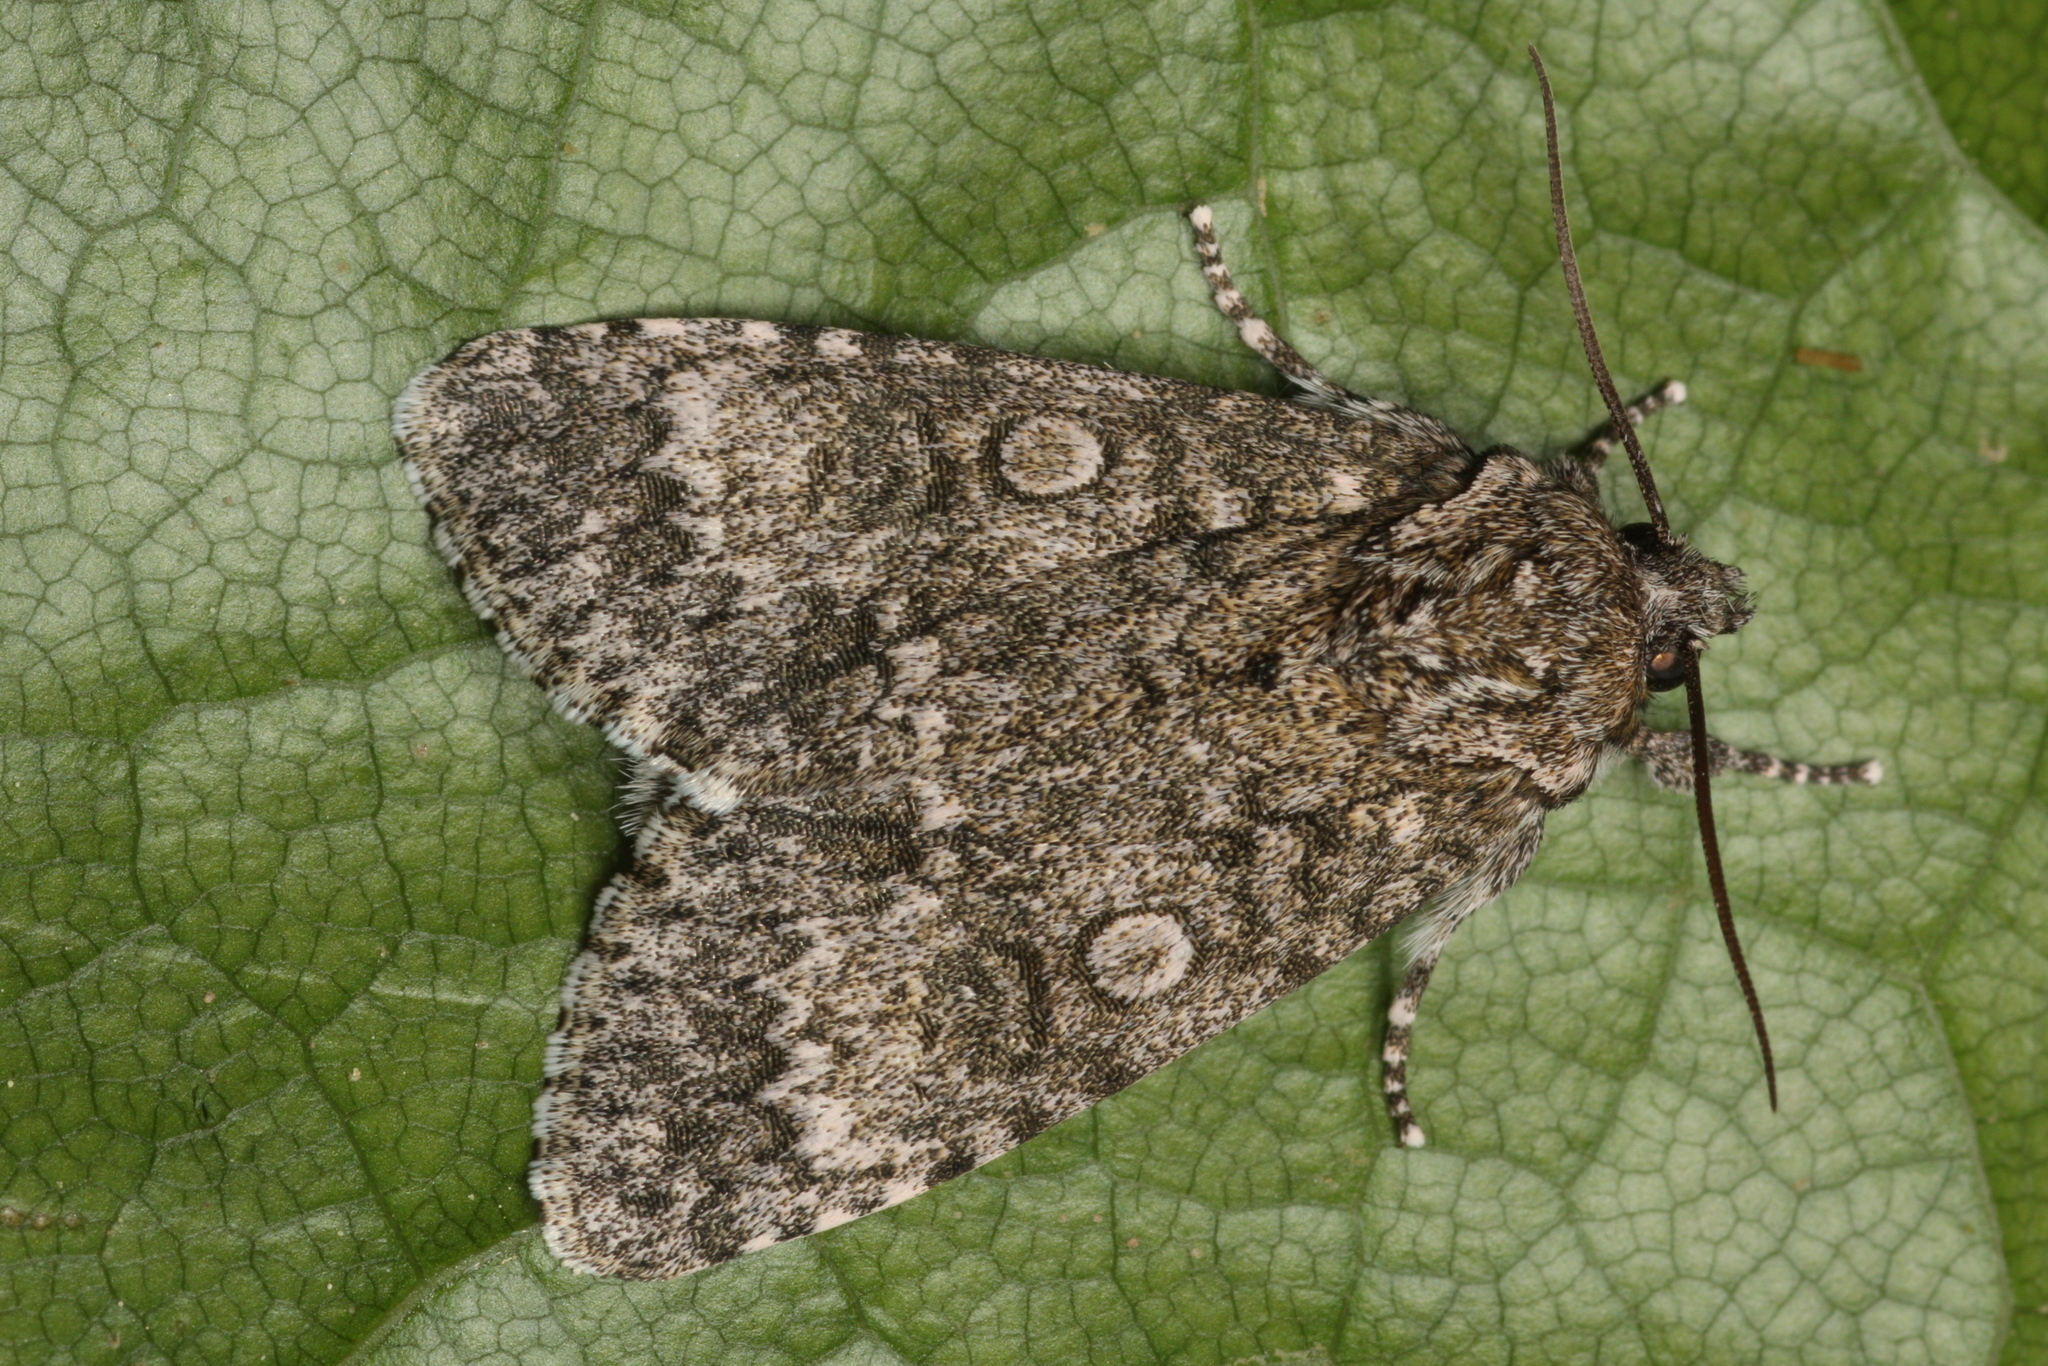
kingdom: Animalia
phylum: Arthropoda
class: Insecta
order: Lepidoptera
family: Noctuidae
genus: Acronicta
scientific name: Acronicta megacephala
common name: Poplar grey
